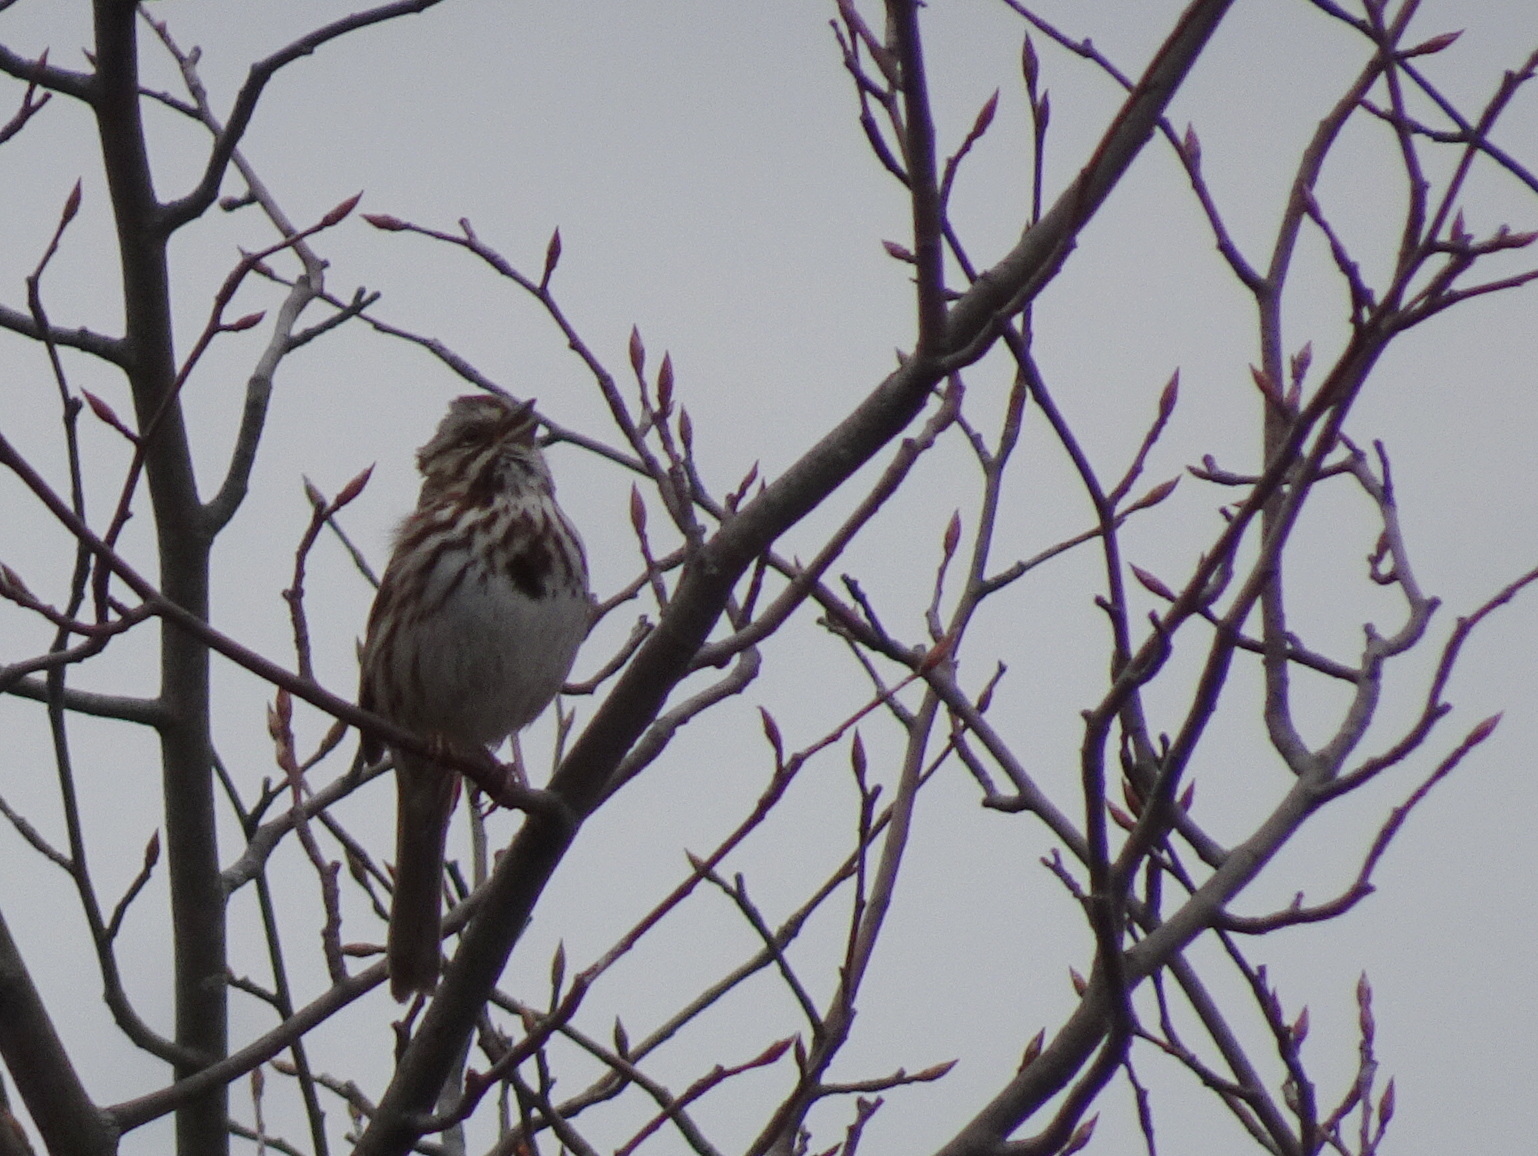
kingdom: Animalia
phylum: Chordata
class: Aves
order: Passeriformes
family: Passerellidae
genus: Melospiza
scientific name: Melospiza melodia
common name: Song sparrow
